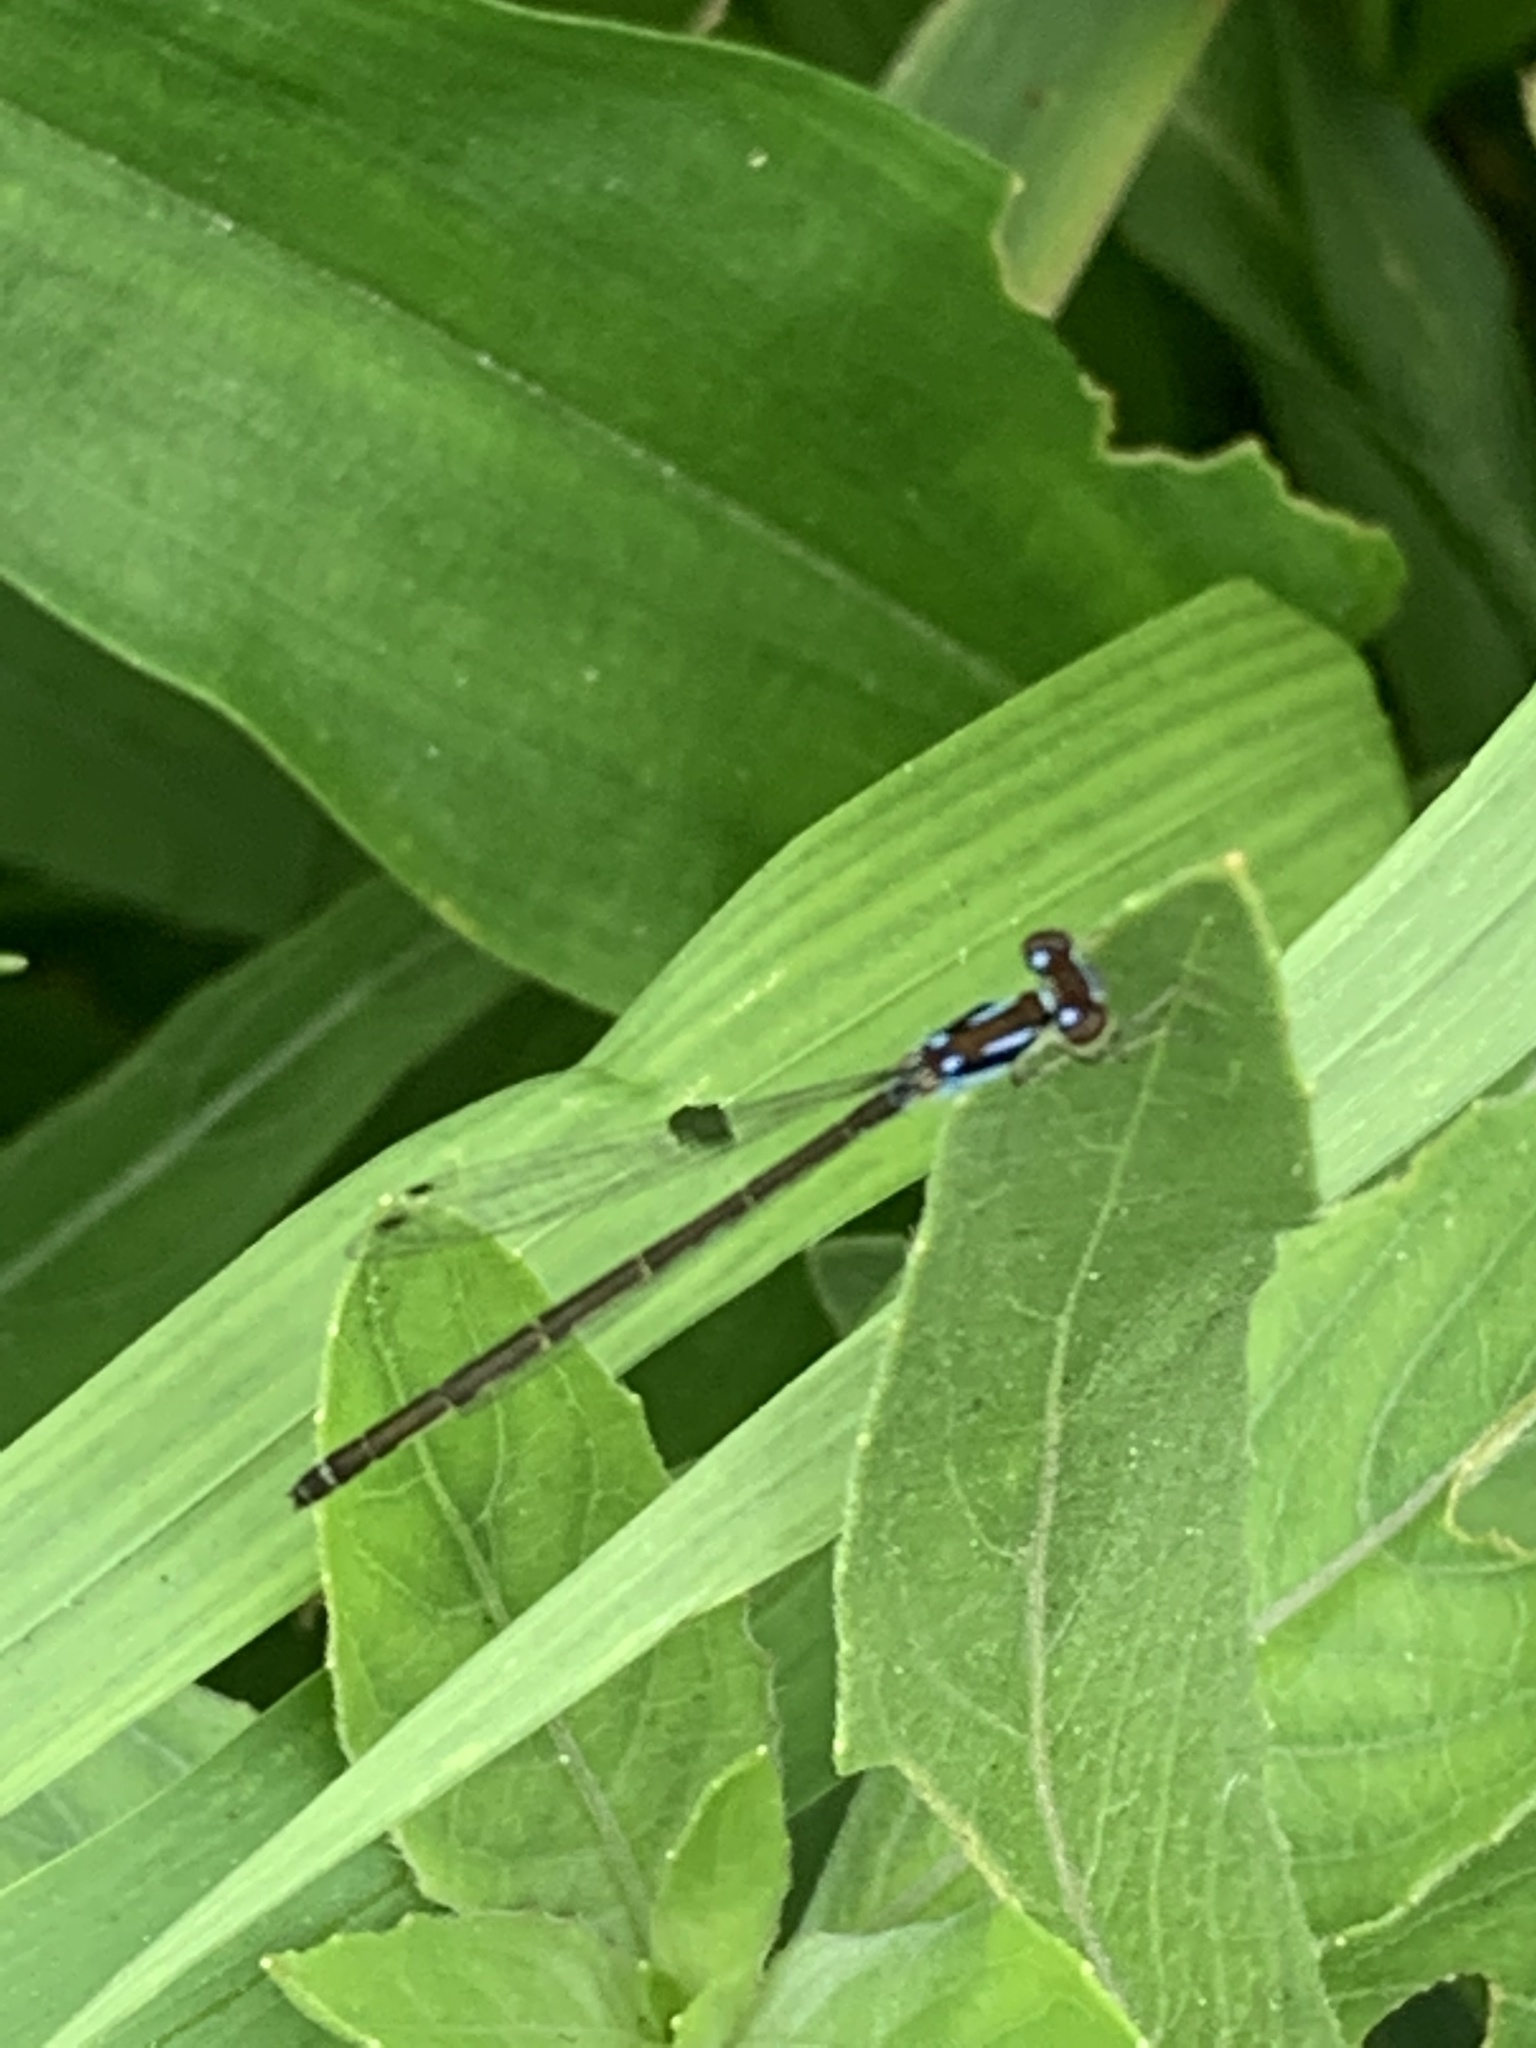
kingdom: Animalia
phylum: Arthropoda
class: Insecta
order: Odonata
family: Coenagrionidae
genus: Ischnura
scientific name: Ischnura posita
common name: Fragile forktail
